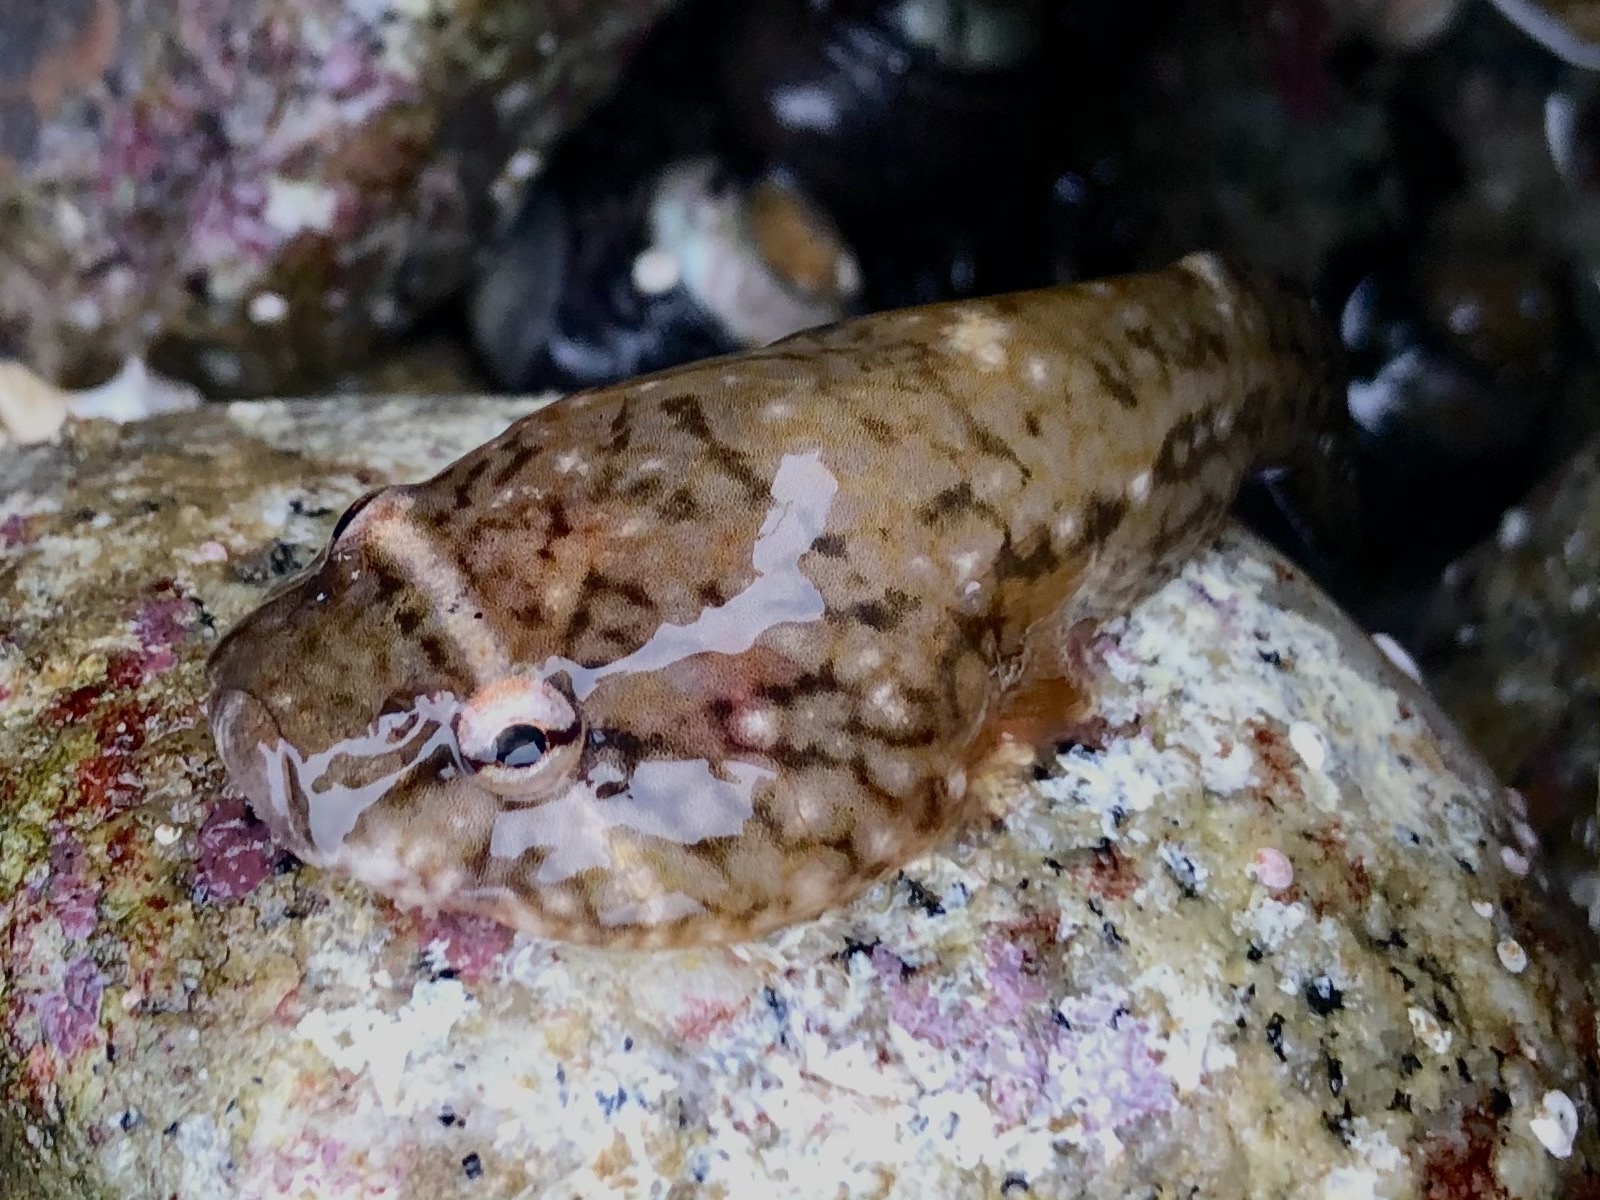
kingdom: Animalia
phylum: Chordata
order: Gobiesociformes
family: Gobiesocidae
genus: Gobiesox
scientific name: Gobiesox maeandricus
